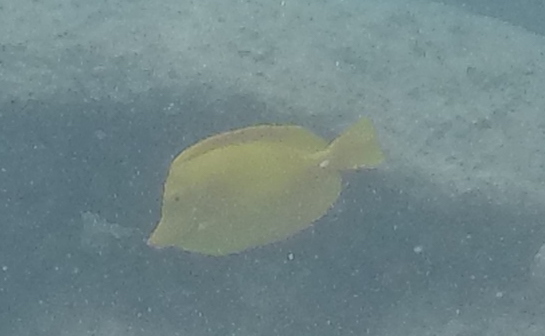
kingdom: Animalia
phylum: Chordata
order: Perciformes
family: Acanthuridae
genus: Zebrasoma
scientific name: Zebrasoma flavescens
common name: Yellow tang
